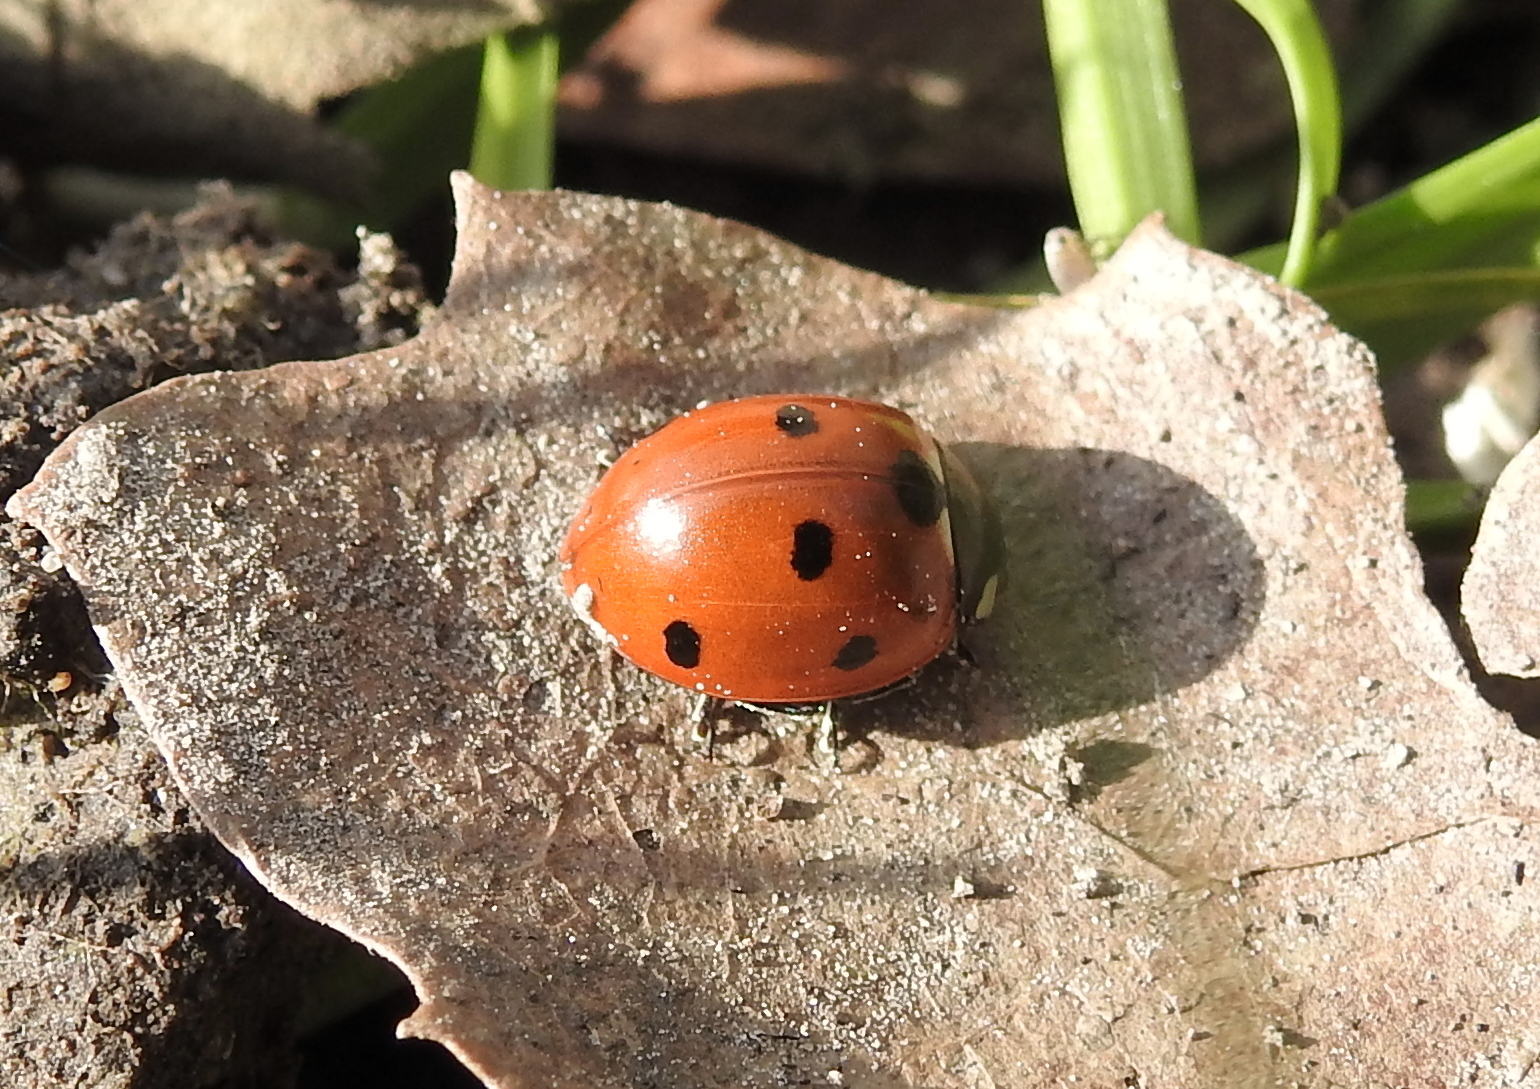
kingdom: Animalia
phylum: Arthropoda
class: Insecta
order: Coleoptera
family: Coccinellidae
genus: Coccinella
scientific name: Coccinella septempunctata
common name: Sevenspotted lady beetle
